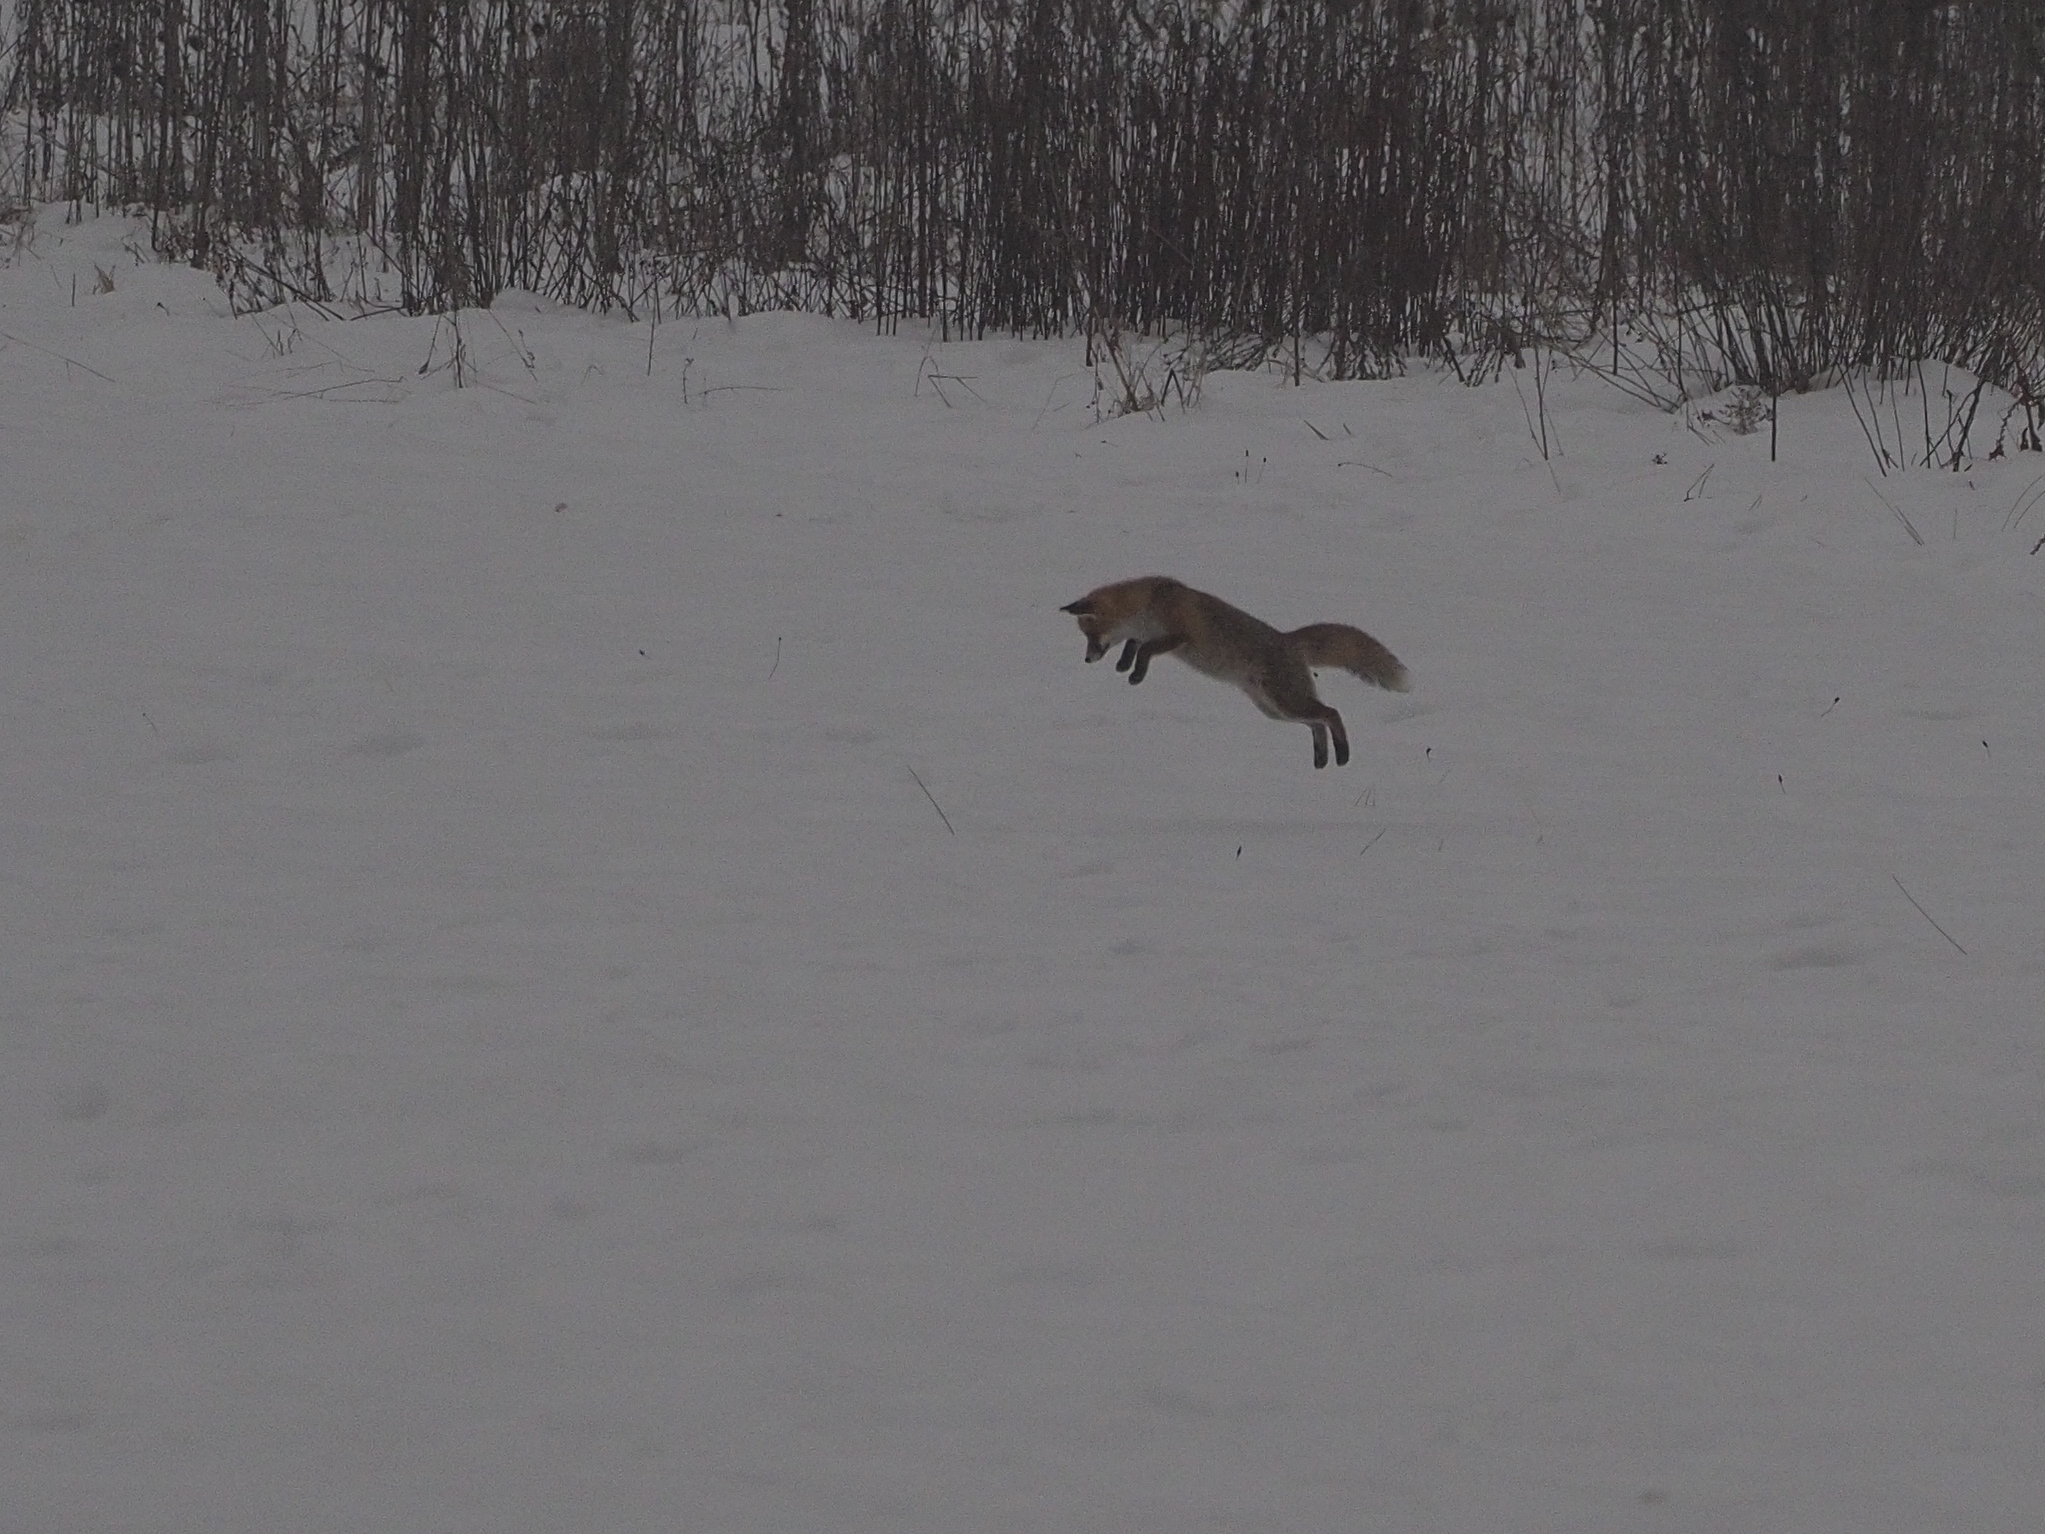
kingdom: Animalia
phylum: Chordata
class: Mammalia
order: Carnivora
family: Canidae
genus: Vulpes
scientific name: Vulpes vulpes
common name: Red fox
